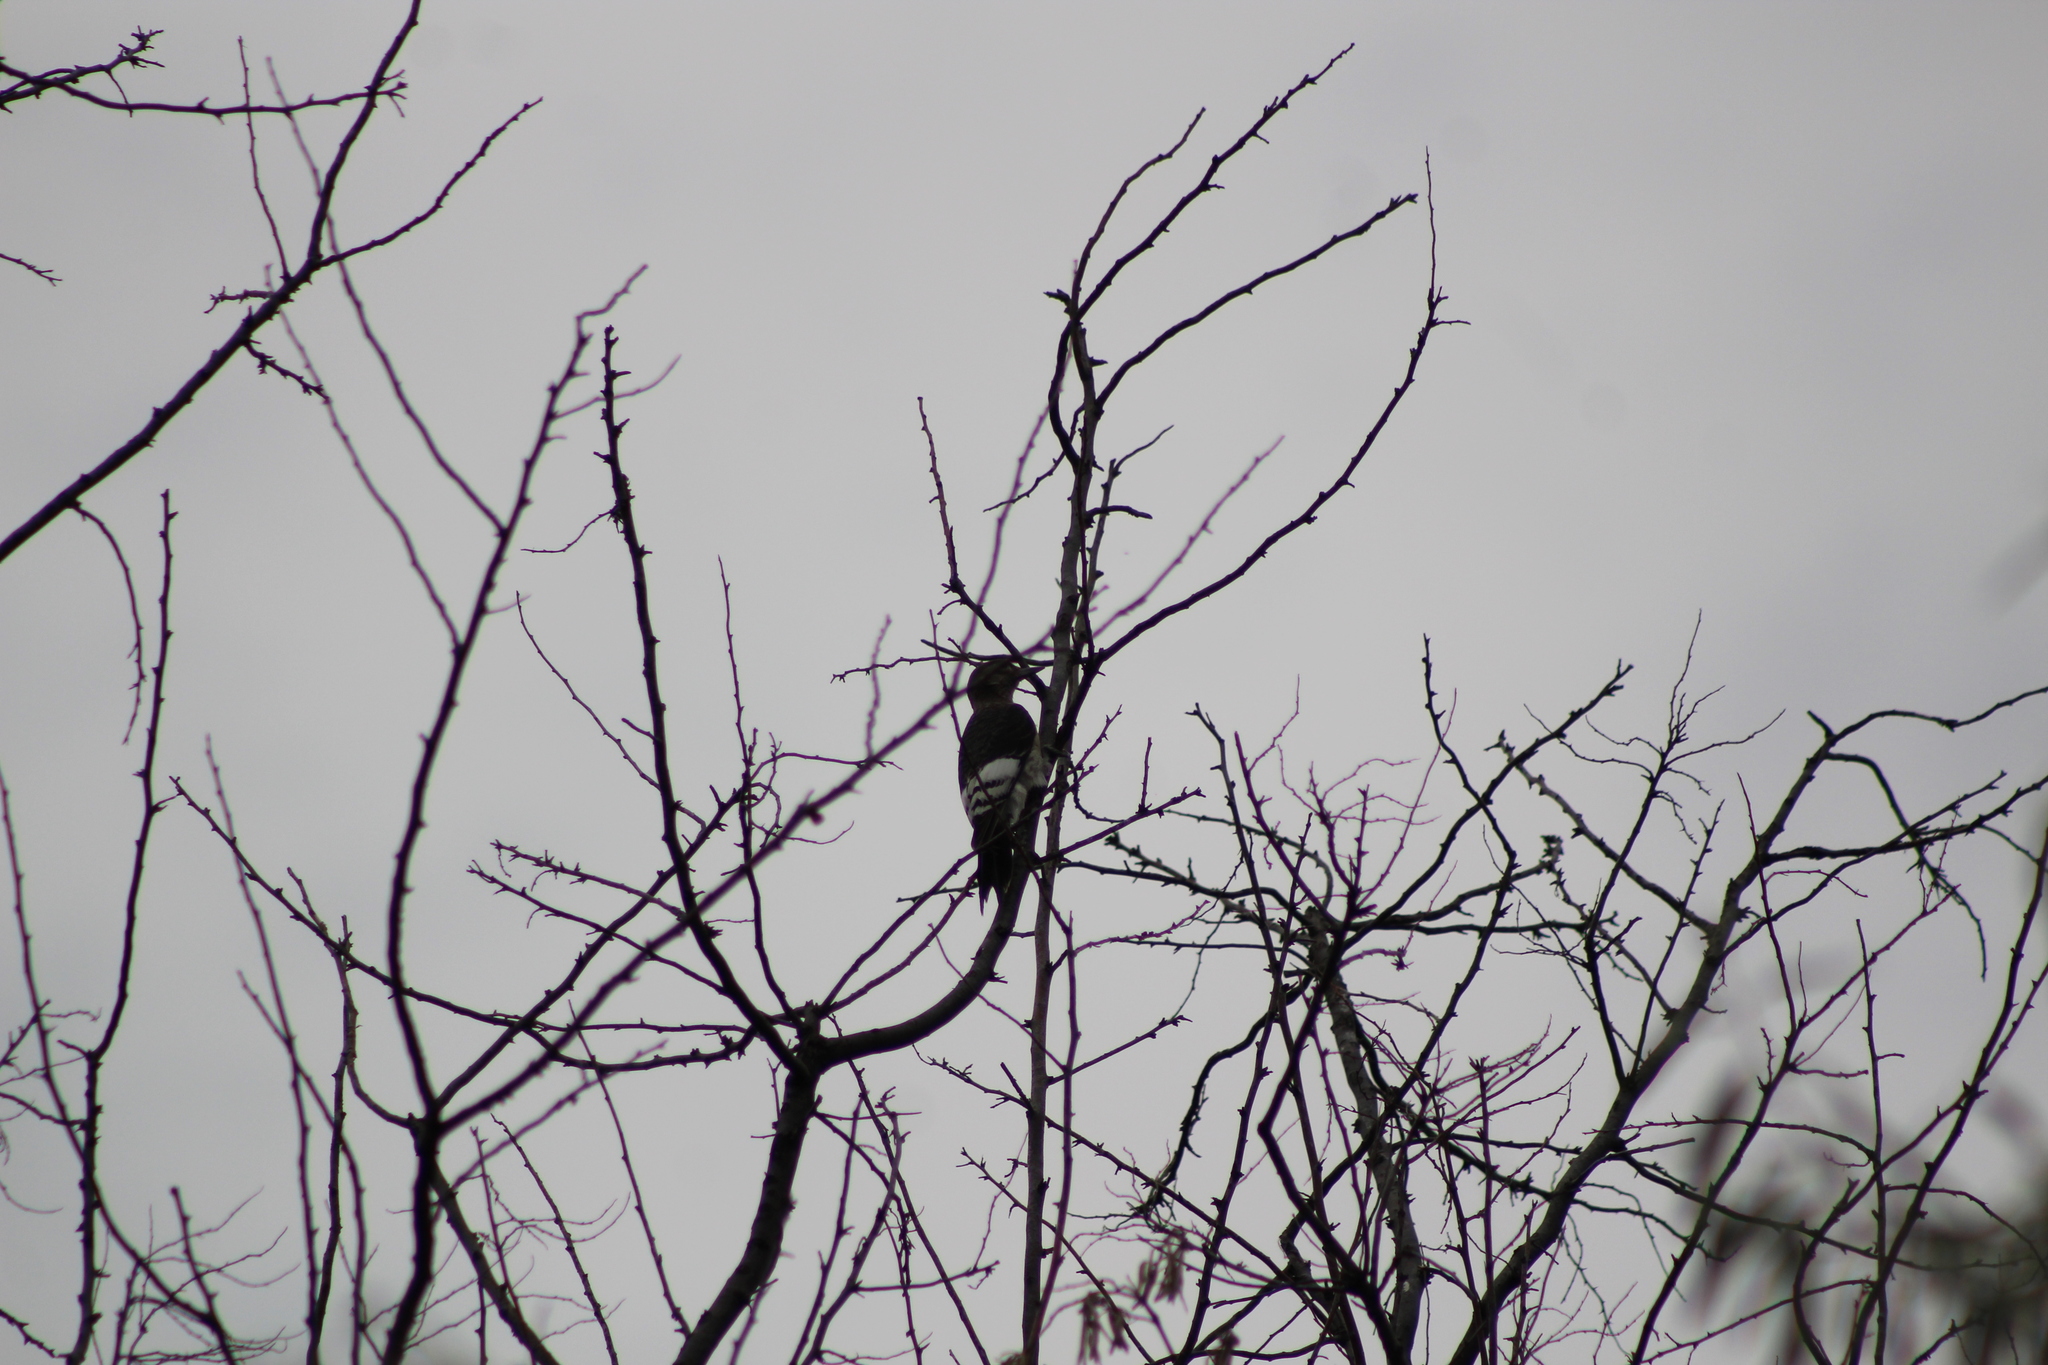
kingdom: Animalia
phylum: Chordata
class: Aves
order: Piciformes
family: Picidae
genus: Melanerpes
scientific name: Melanerpes erythrocephalus
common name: Red-headed woodpecker
